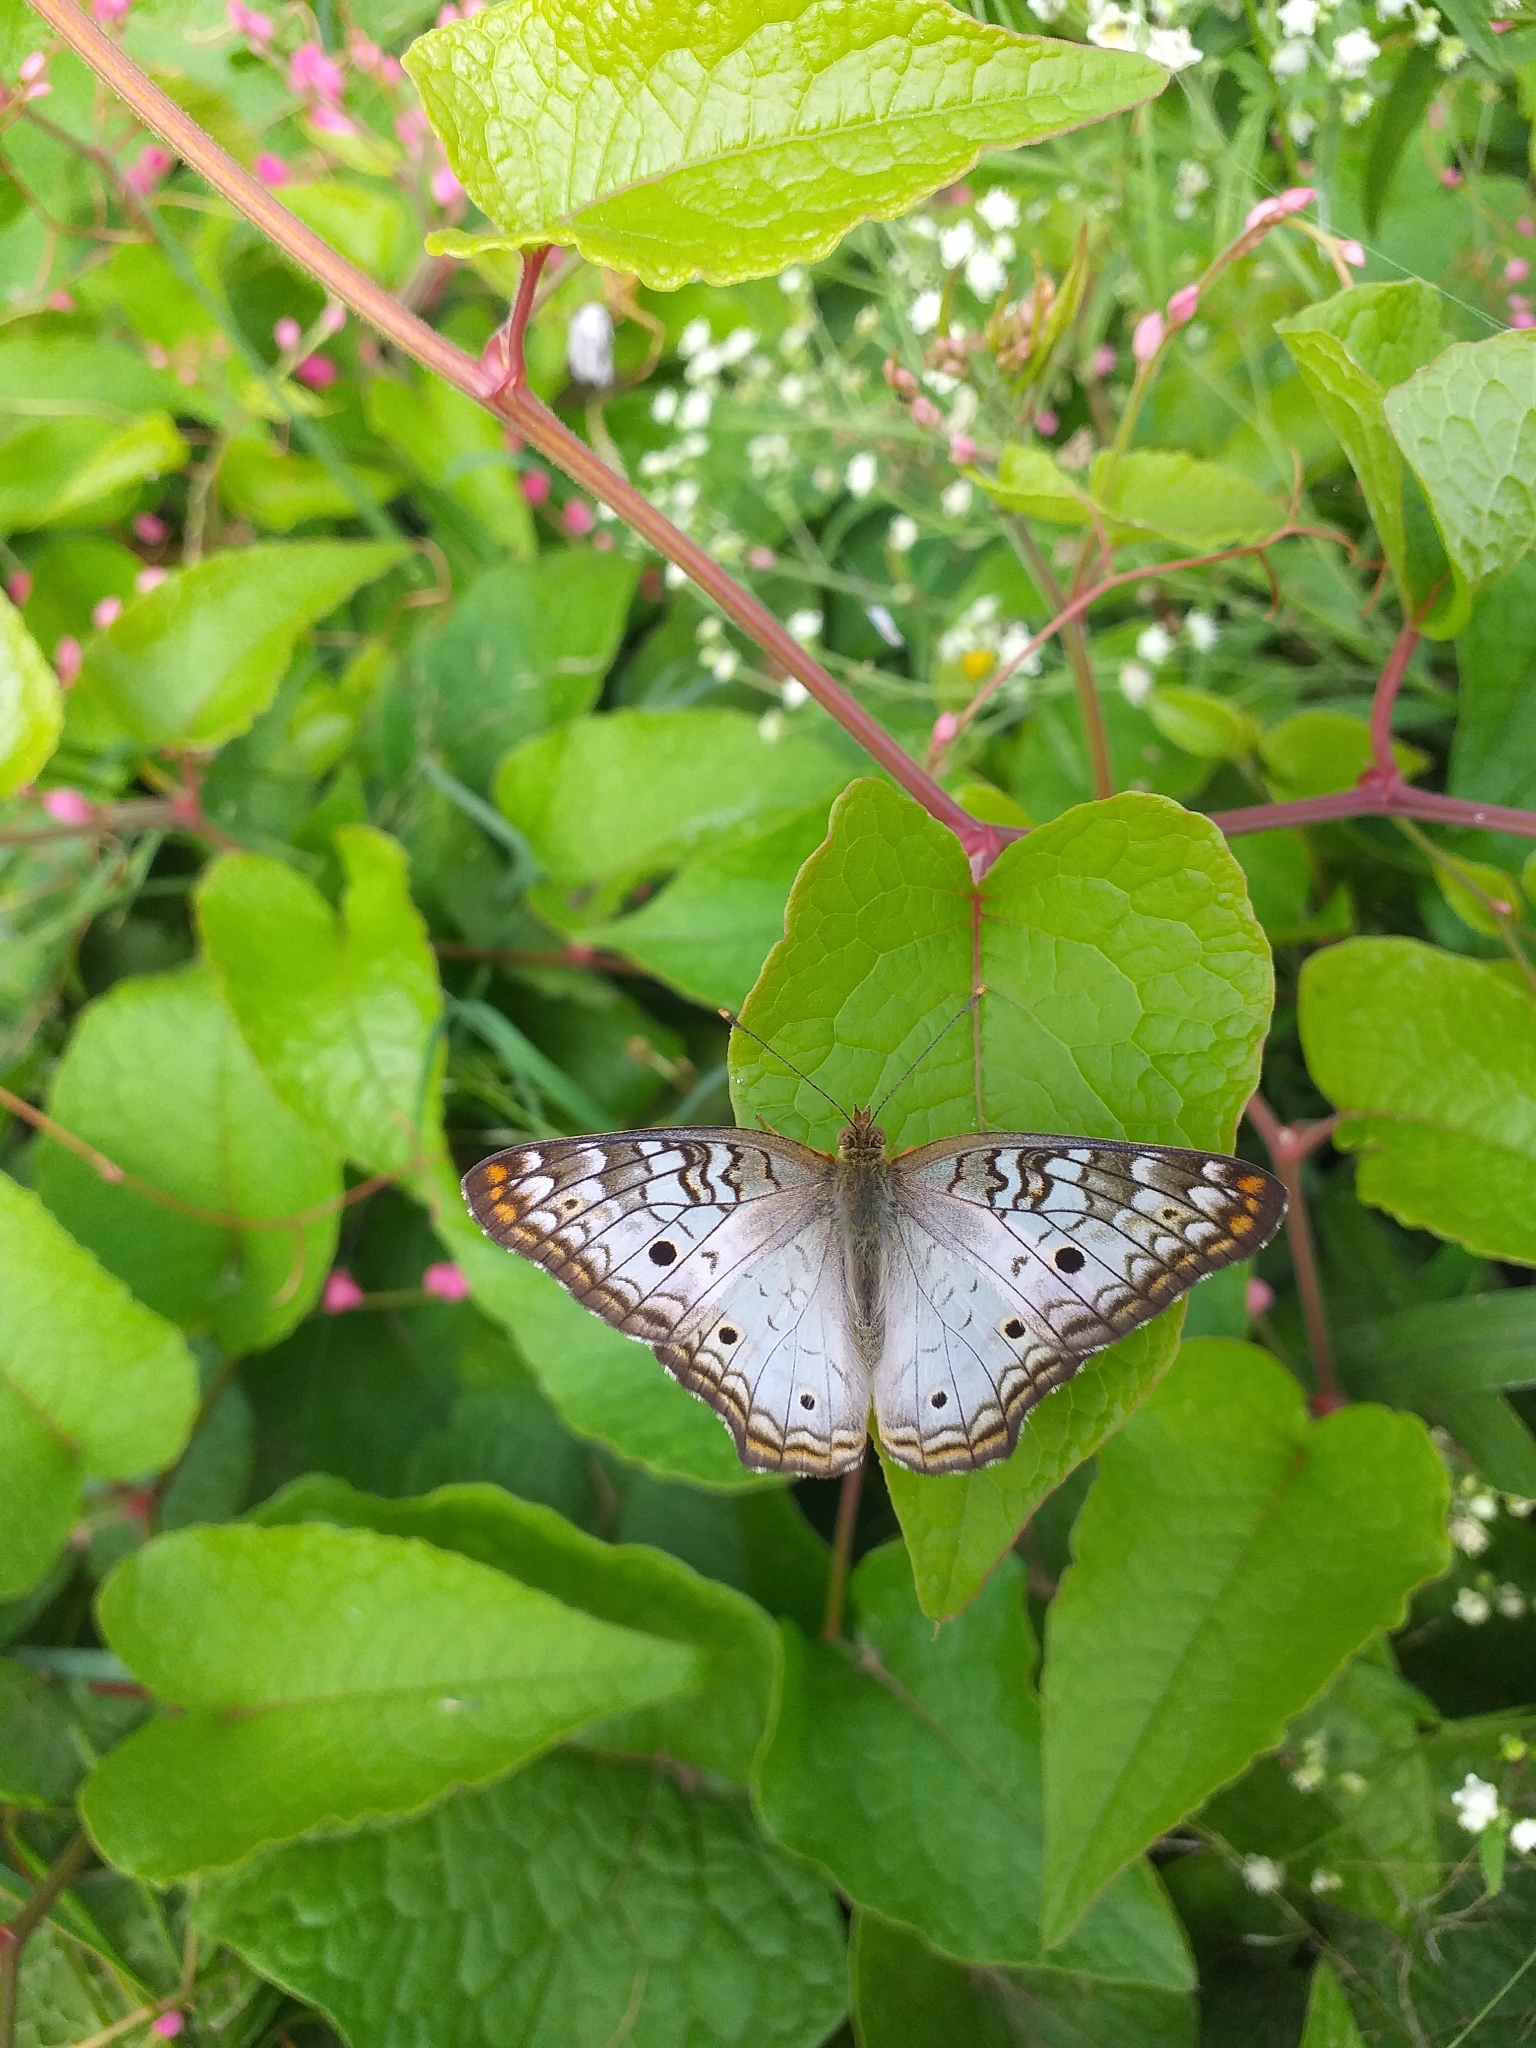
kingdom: Animalia
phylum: Arthropoda
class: Insecta
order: Lepidoptera
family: Nymphalidae
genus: Anartia
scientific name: Anartia jatrophae
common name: White peacock
